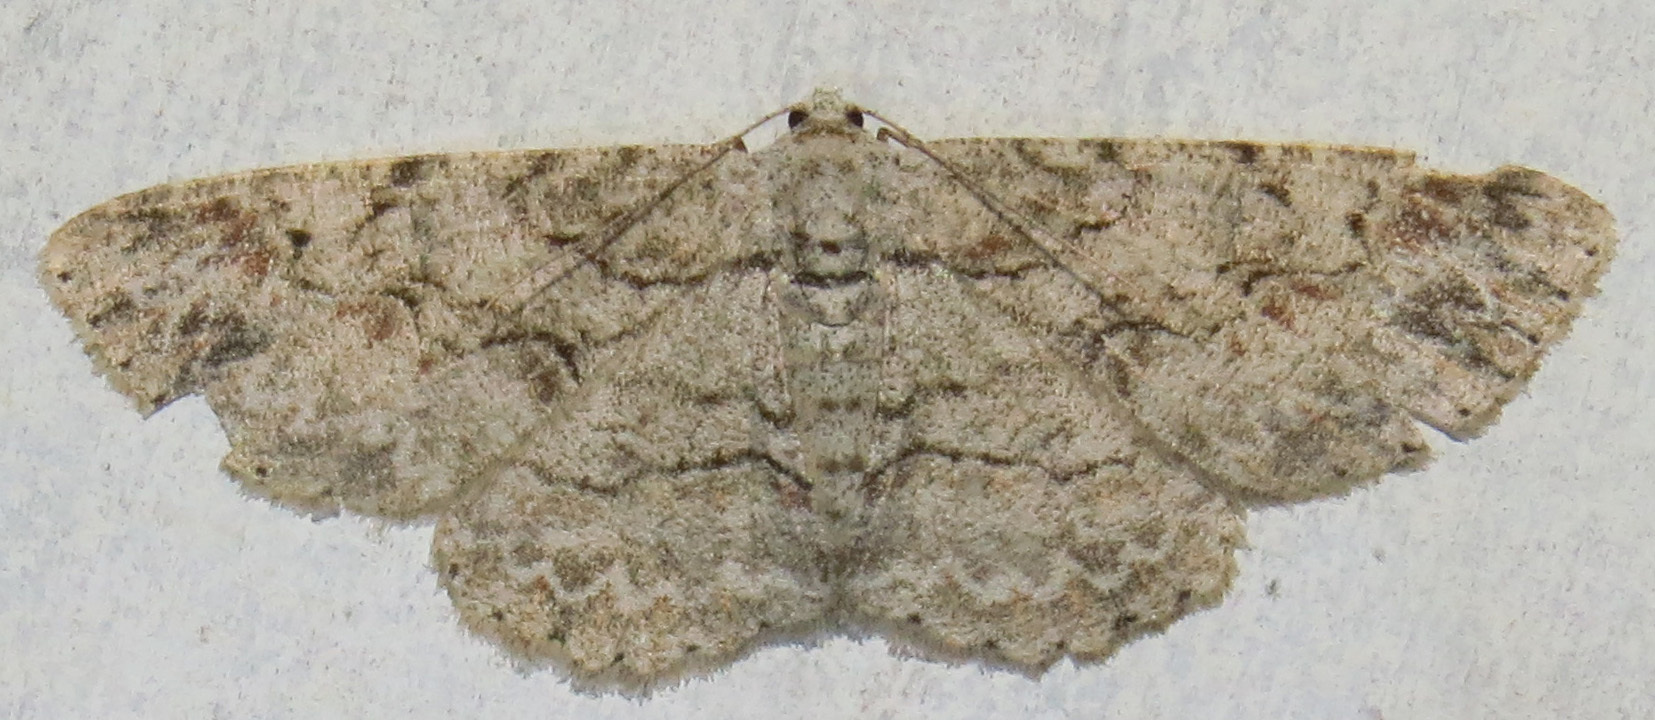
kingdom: Animalia
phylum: Arthropoda
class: Insecta
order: Lepidoptera
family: Geometridae
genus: Iridopsis
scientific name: Iridopsis defectaria
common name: Brown-shaded gray
